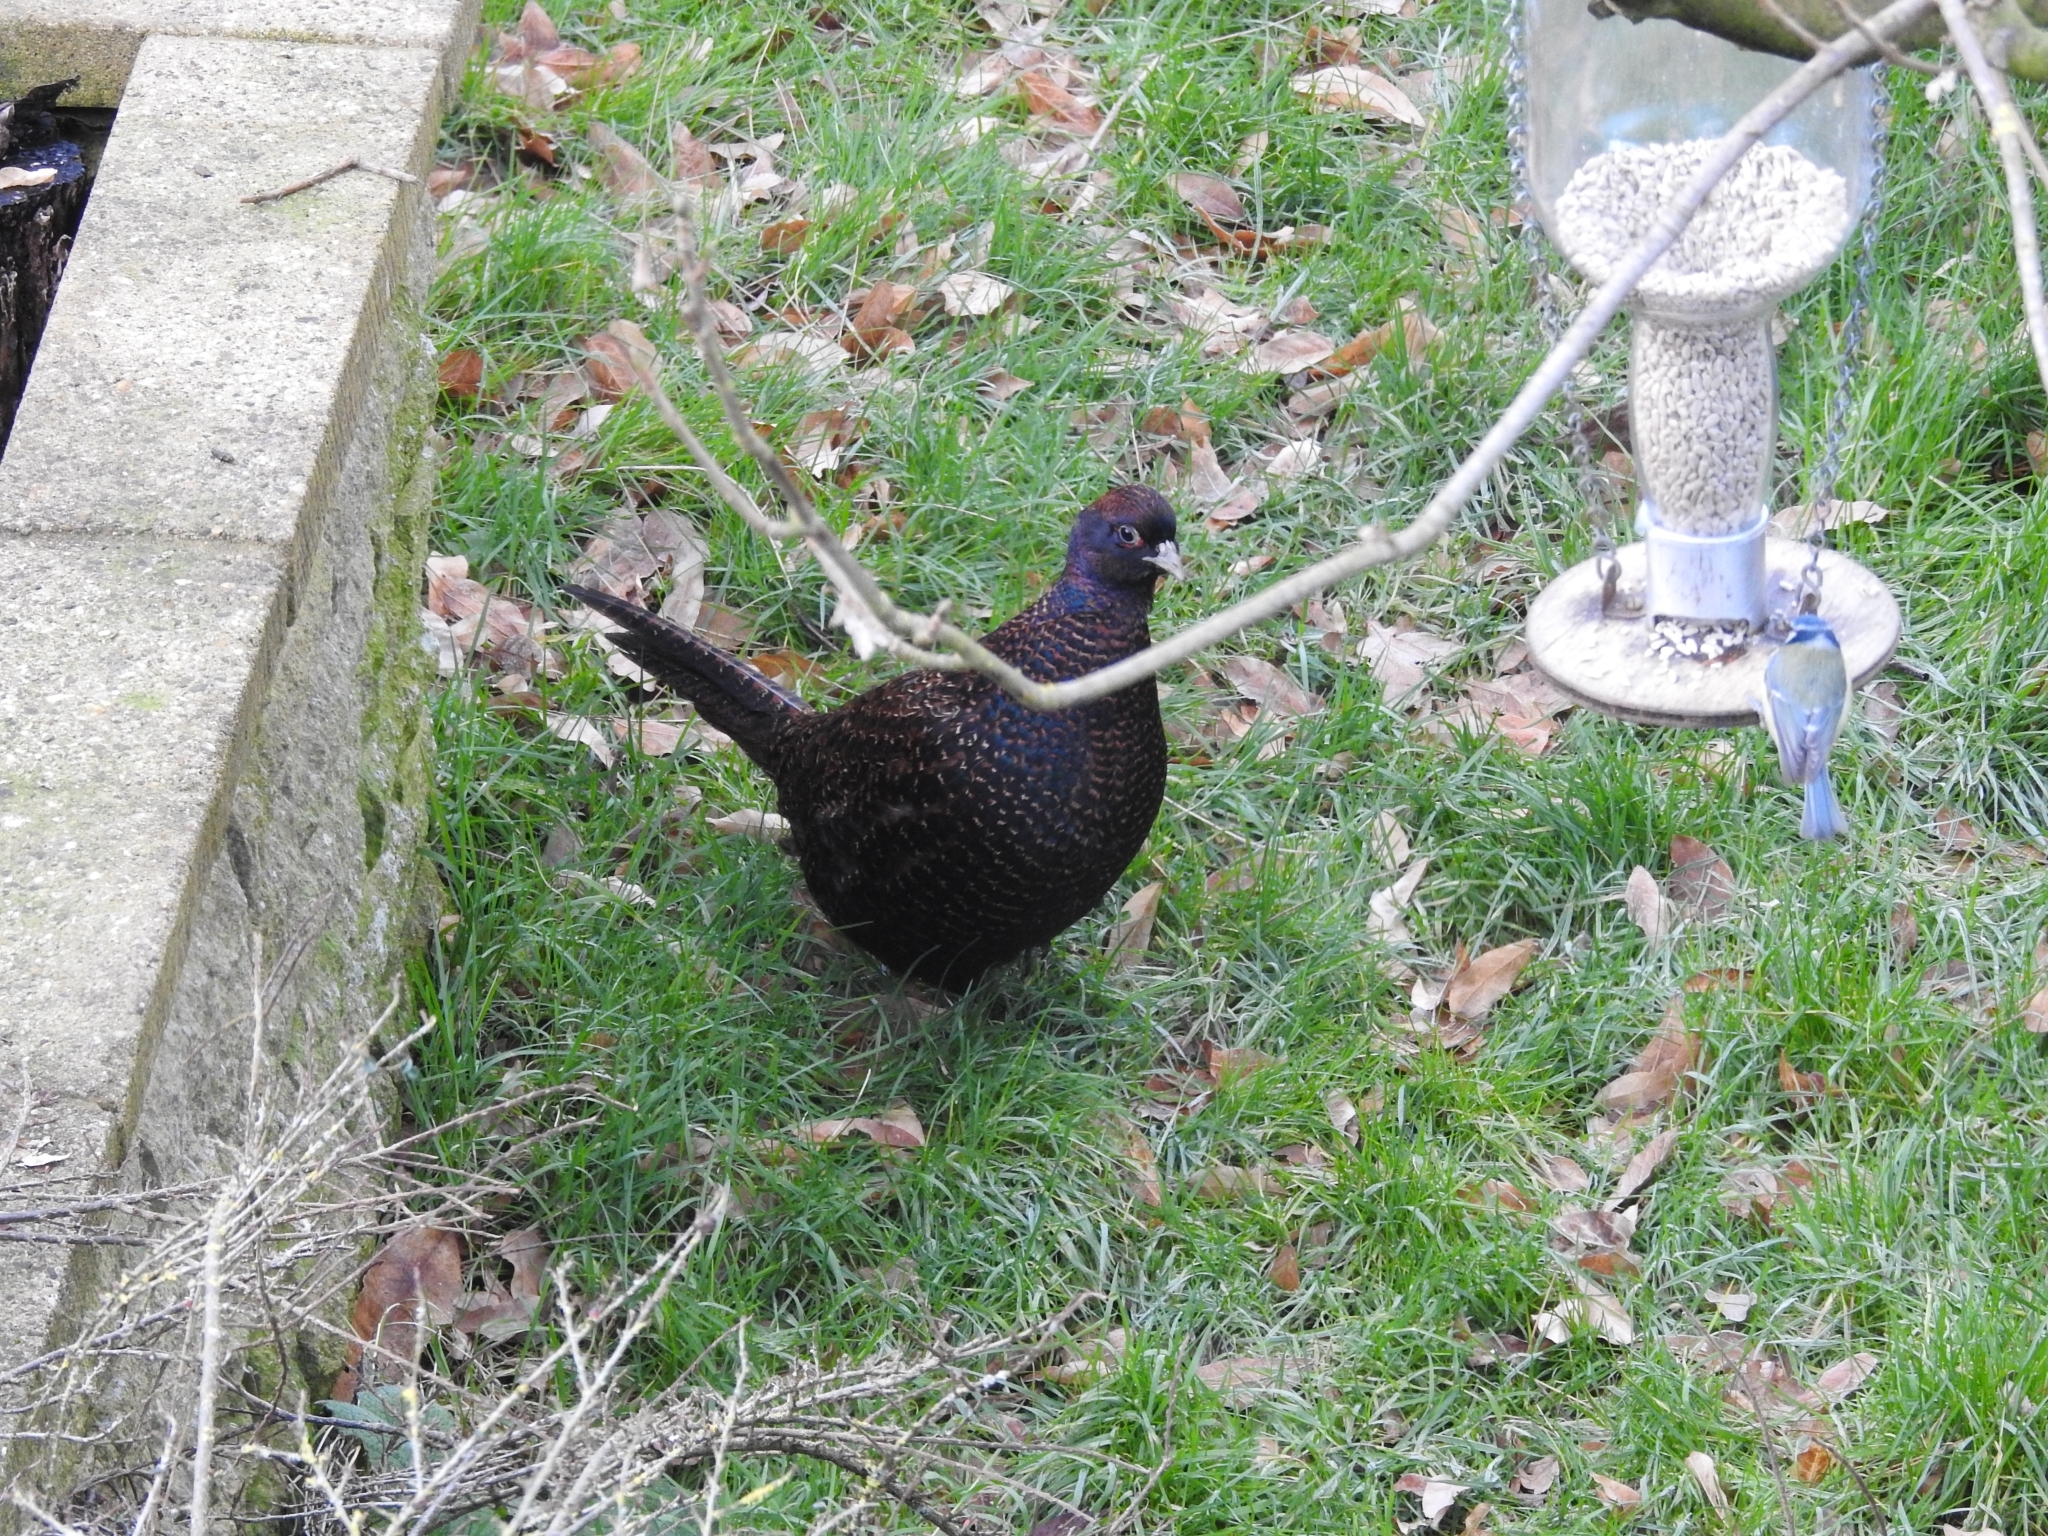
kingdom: Animalia
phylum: Chordata
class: Aves
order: Galliformes
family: Phasianidae
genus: Phasianus
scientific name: Phasianus colchicus
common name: Common pheasant
